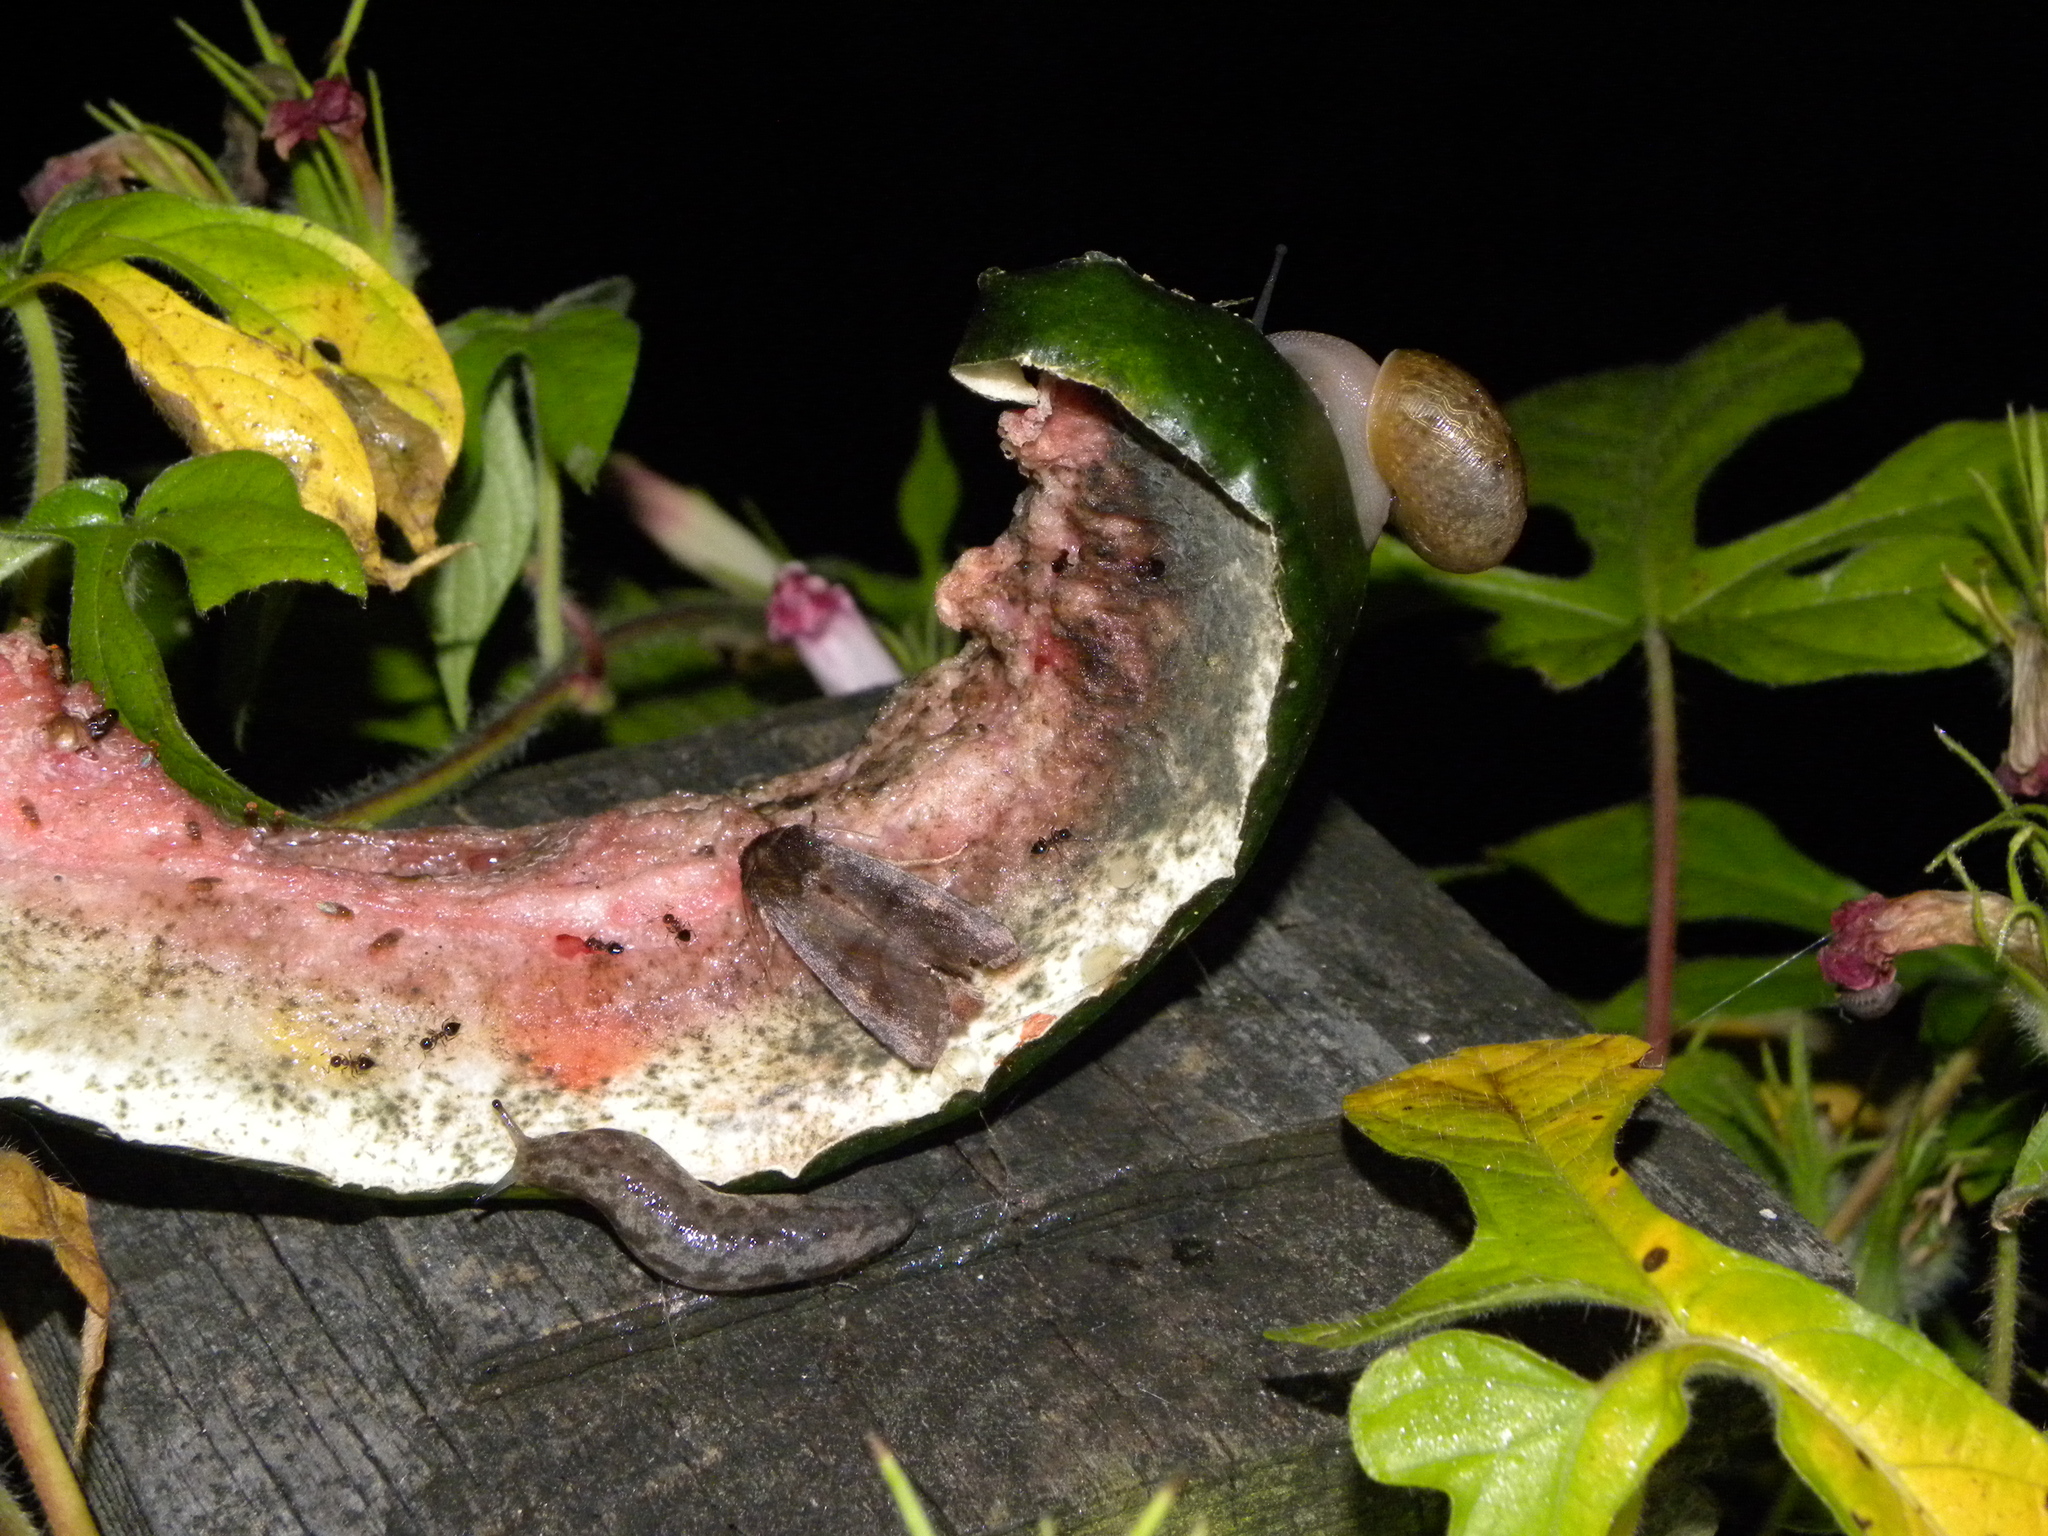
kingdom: Animalia
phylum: Mollusca
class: Gastropoda
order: Stylommatophora
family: Philomycidae
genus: Megapallifera
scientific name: Megapallifera mutabilis
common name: Changeable mantleslug
